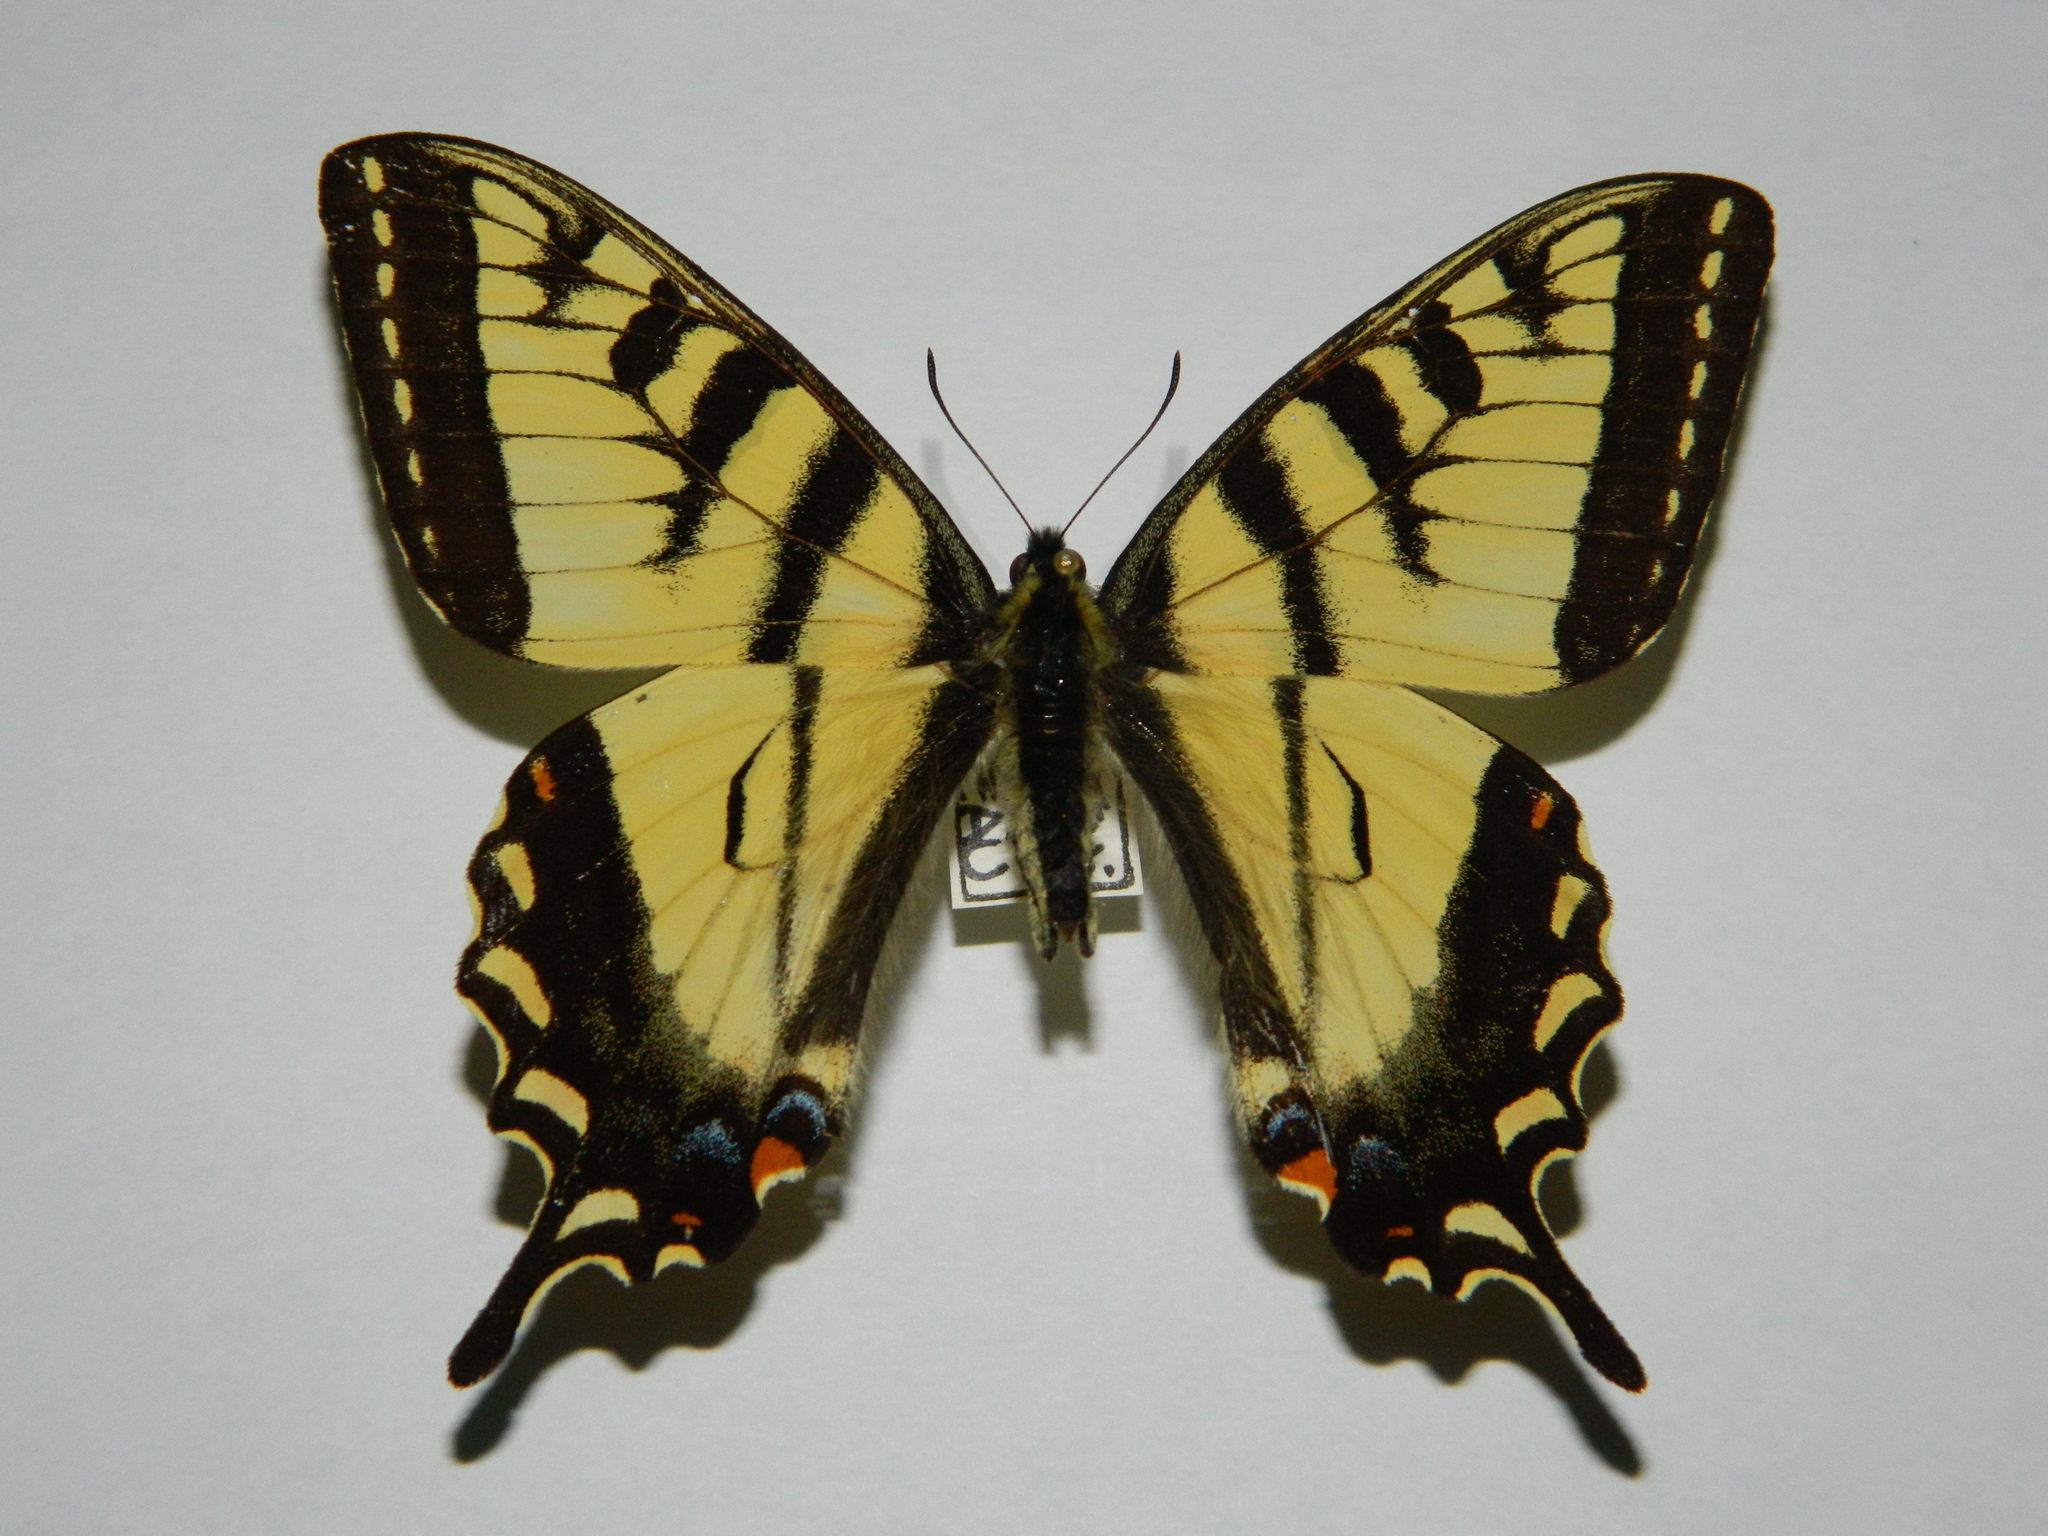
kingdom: Animalia
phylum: Arthropoda
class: Insecta
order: Lepidoptera
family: Papilionidae
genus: Papilio
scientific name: Papilio canadensis
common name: Canadian tiger swallowtail
